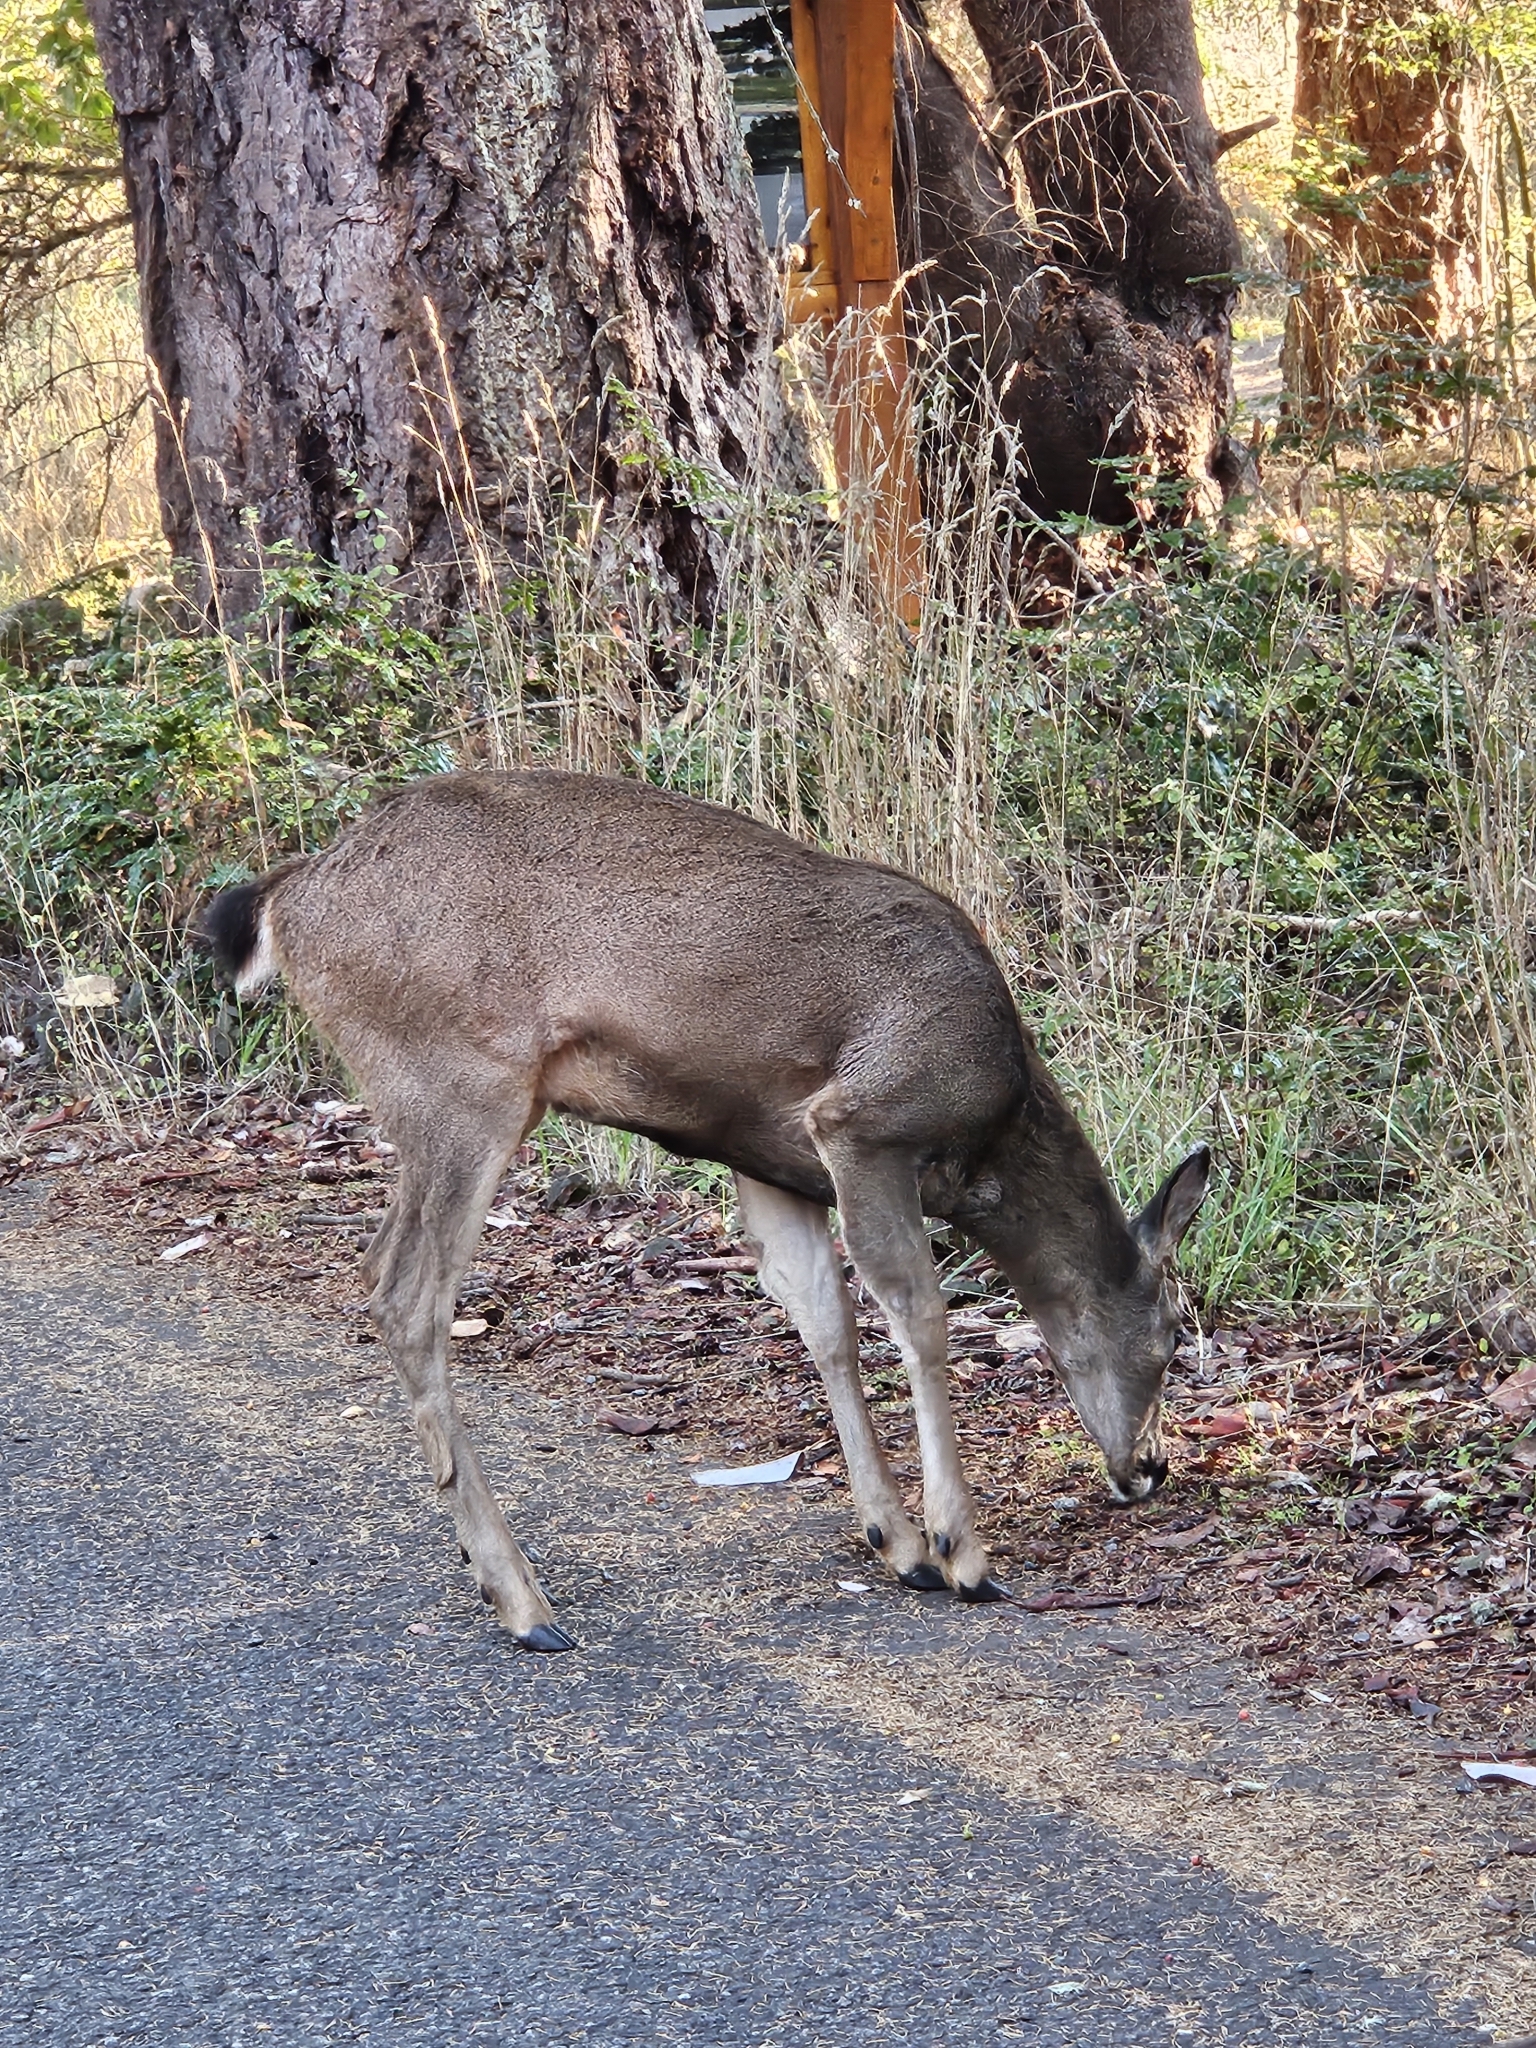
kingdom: Animalia
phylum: Chordata
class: Mammalia
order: Artiodactyla
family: Cervidae
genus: Odocoileus
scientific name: Odocoileus hemionus
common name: Mule deer
